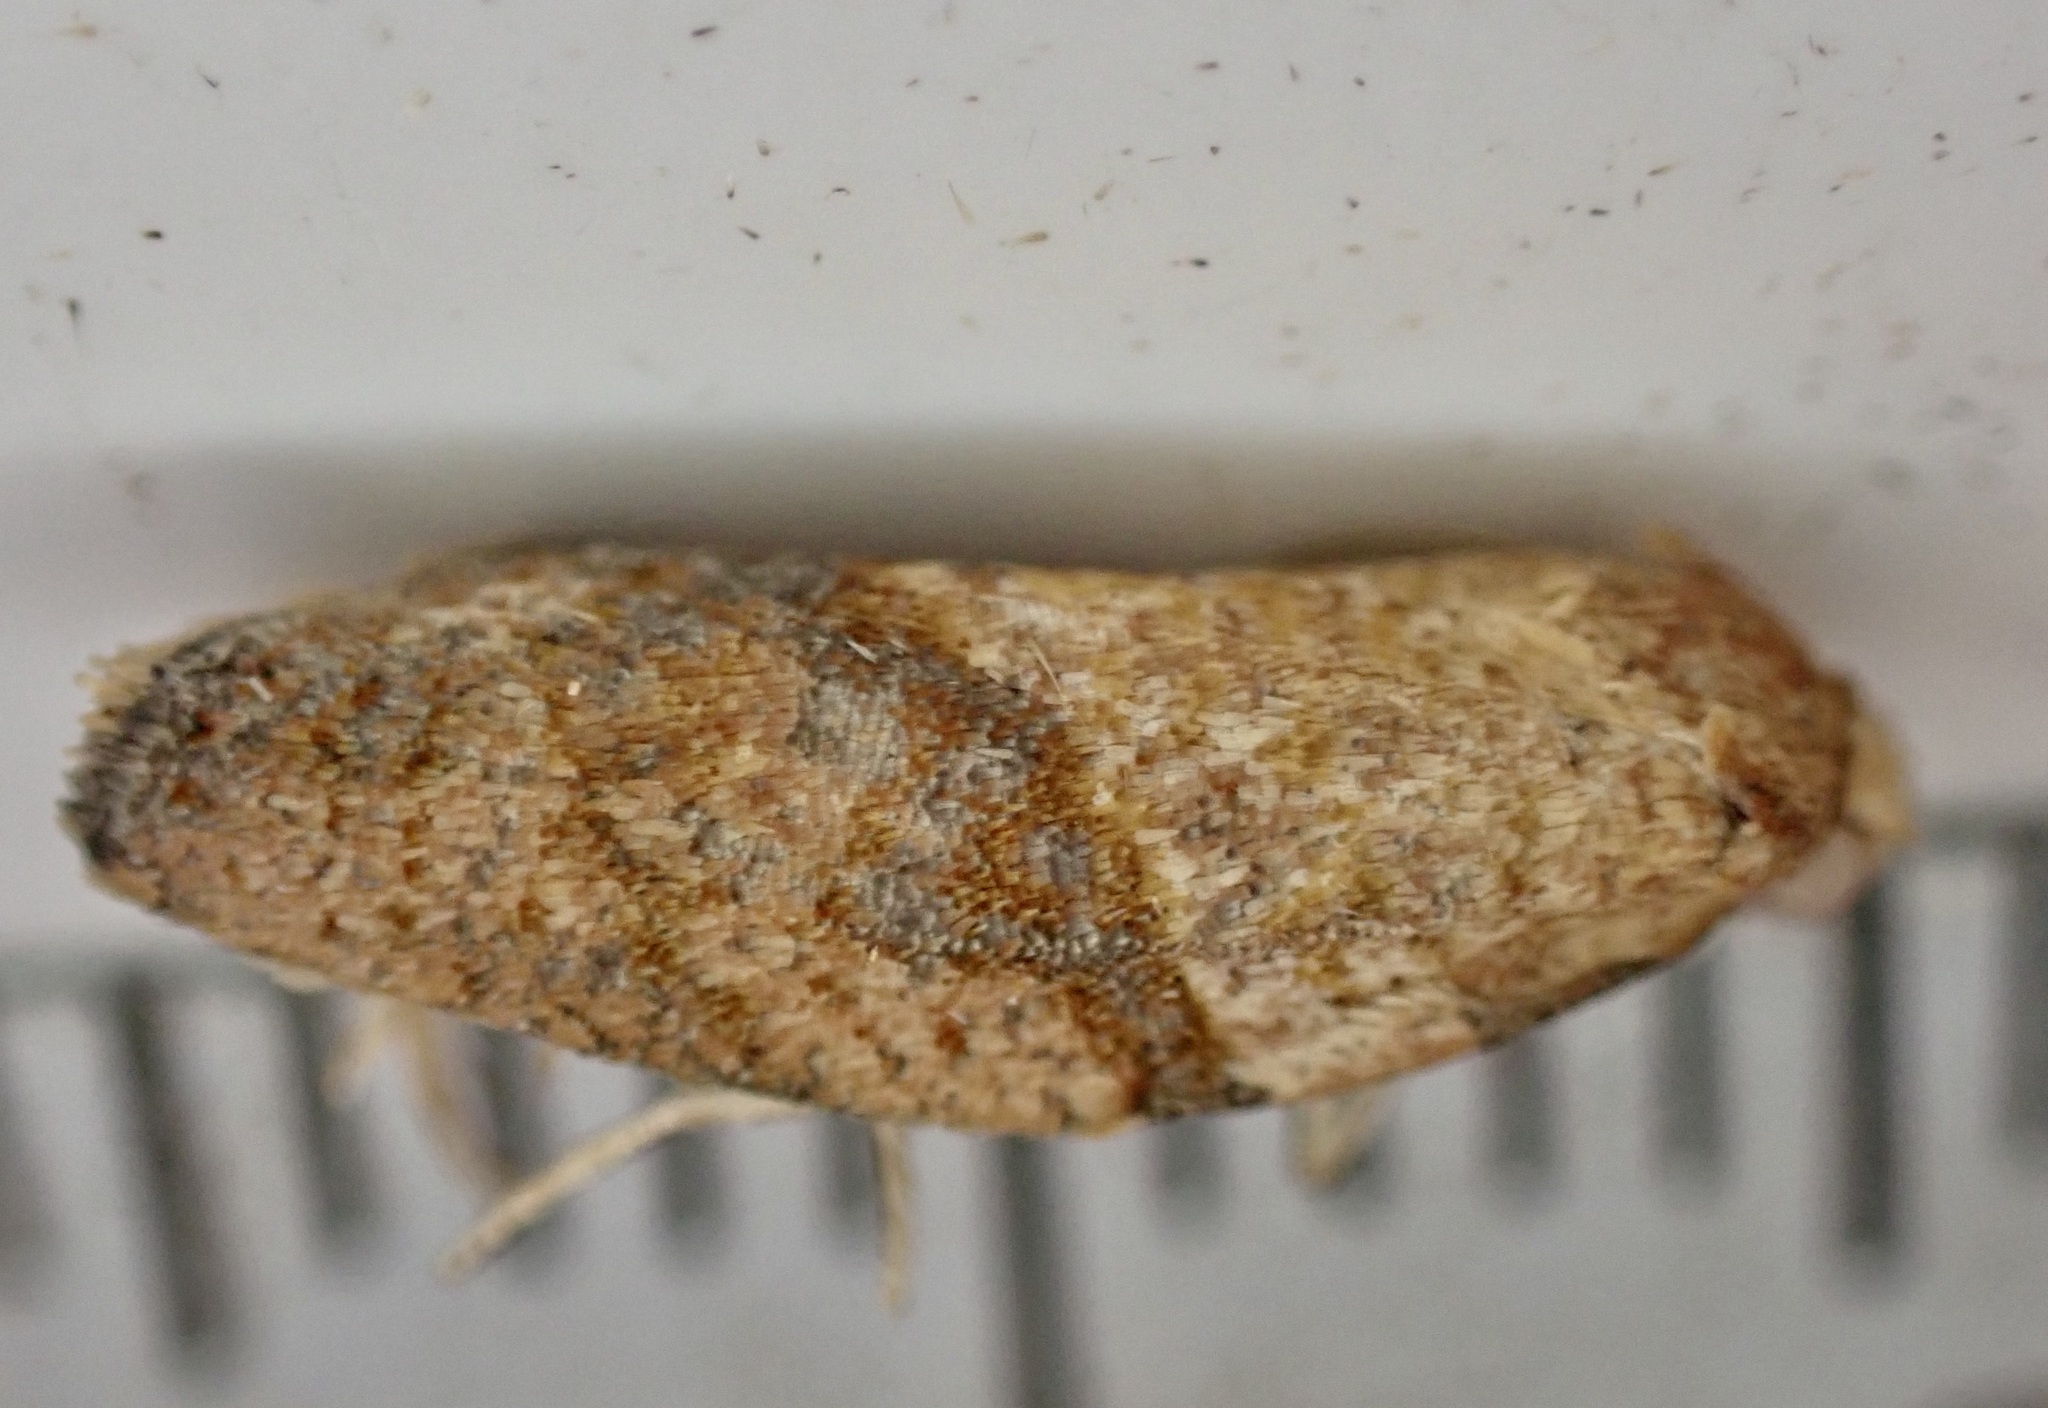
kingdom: Animalia
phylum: Arthropoda
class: Insecta
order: Lepidoptera
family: Tortricidae
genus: Epiphyas
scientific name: Epiphyas postvittana
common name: Light brown apple moth
